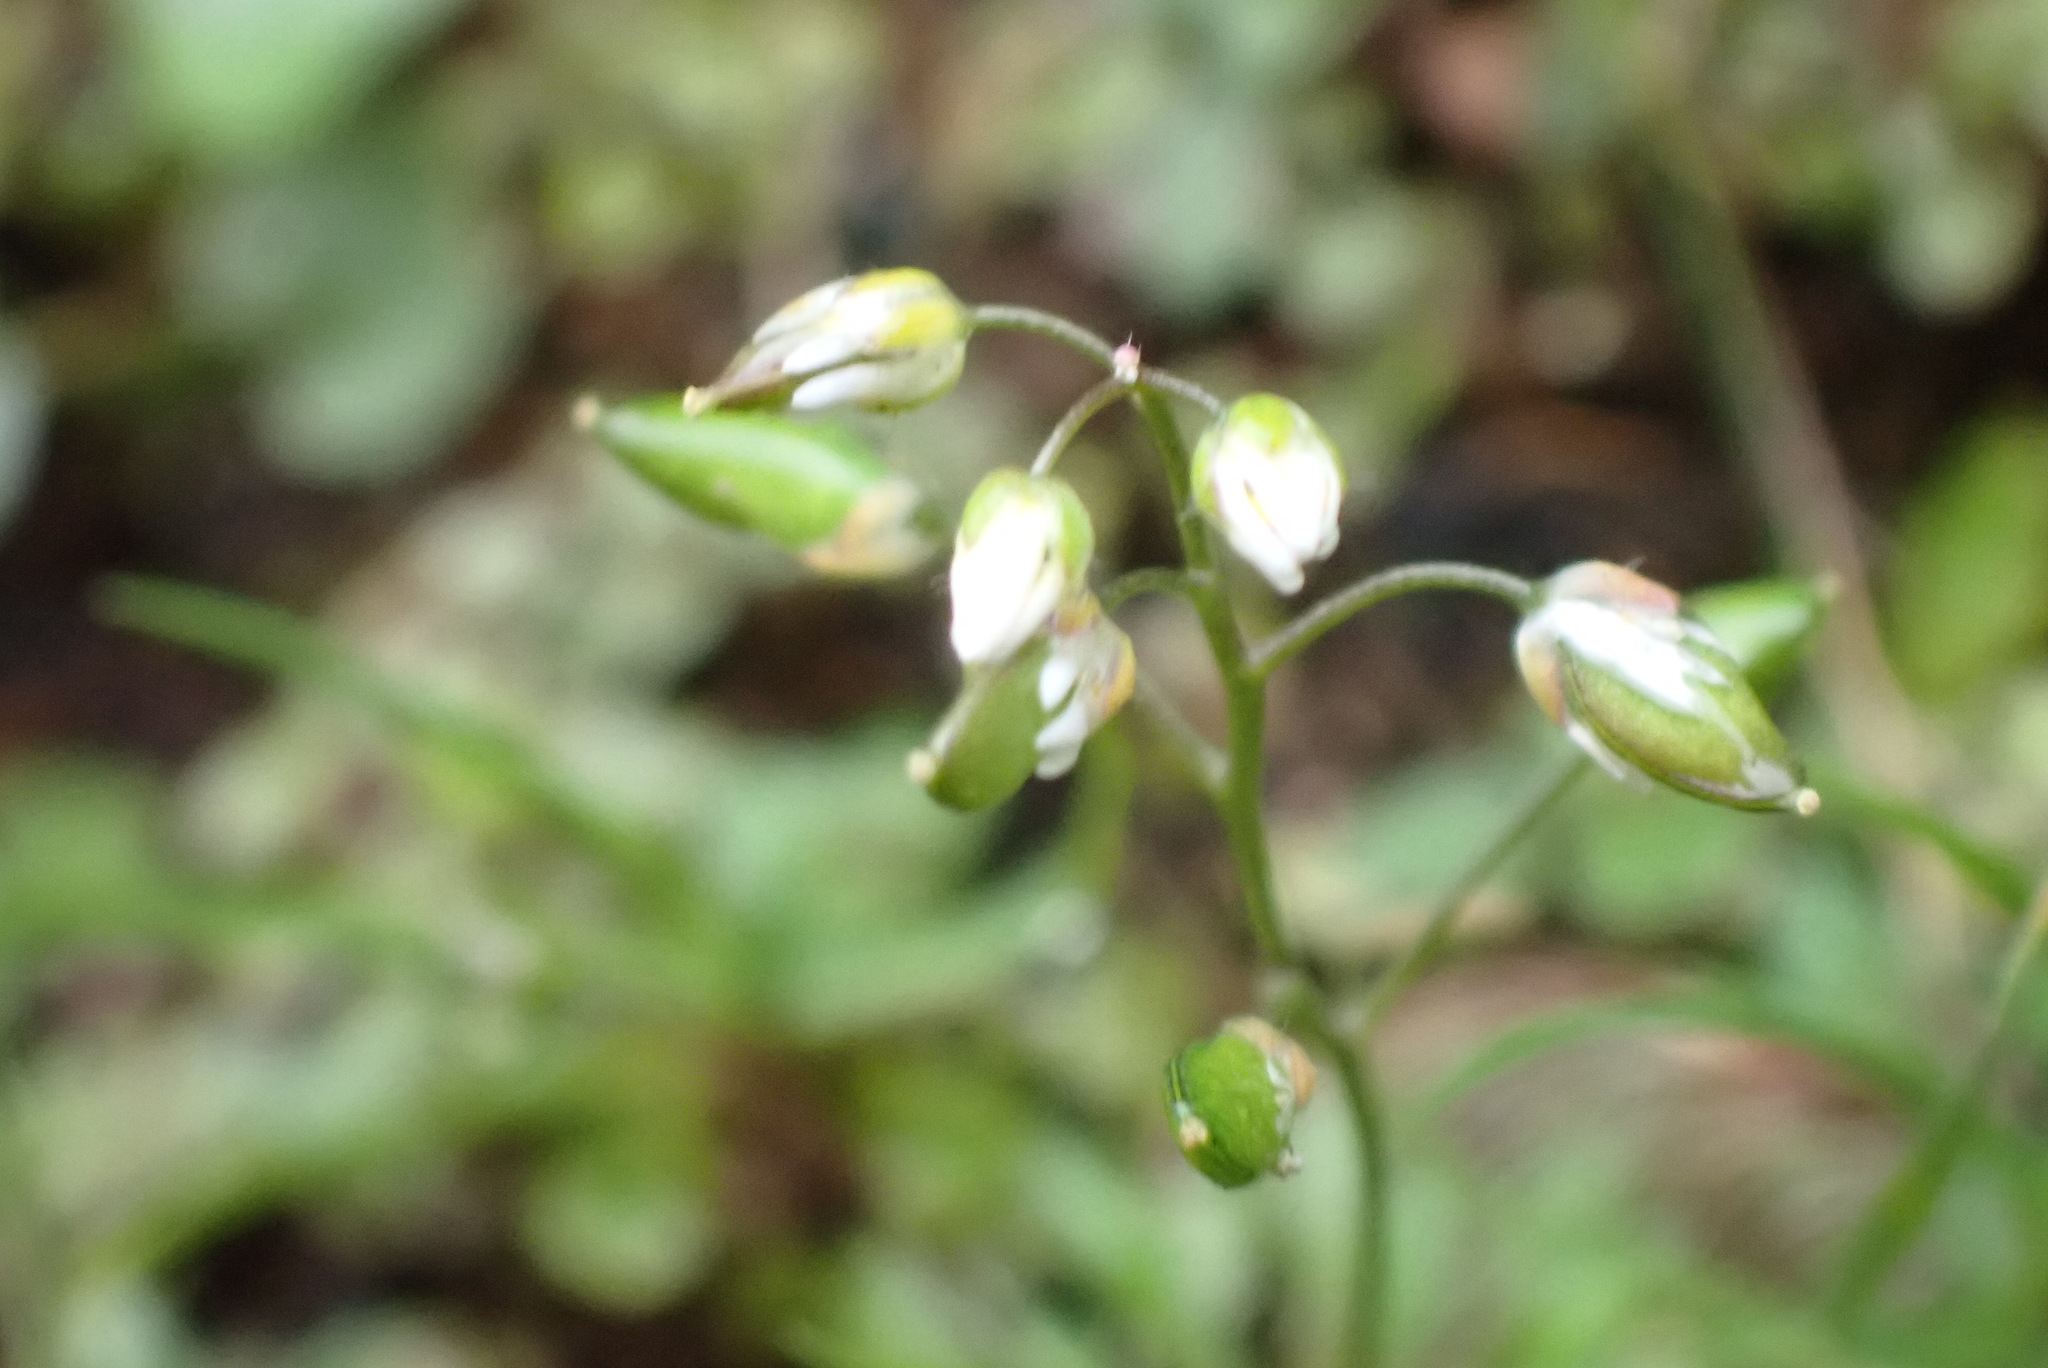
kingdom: Plantae
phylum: Tracheophyta
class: Magnoliopsida
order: Brassicales
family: Brassicaceae
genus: Draba
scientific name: Draba verna
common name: Spring draba
